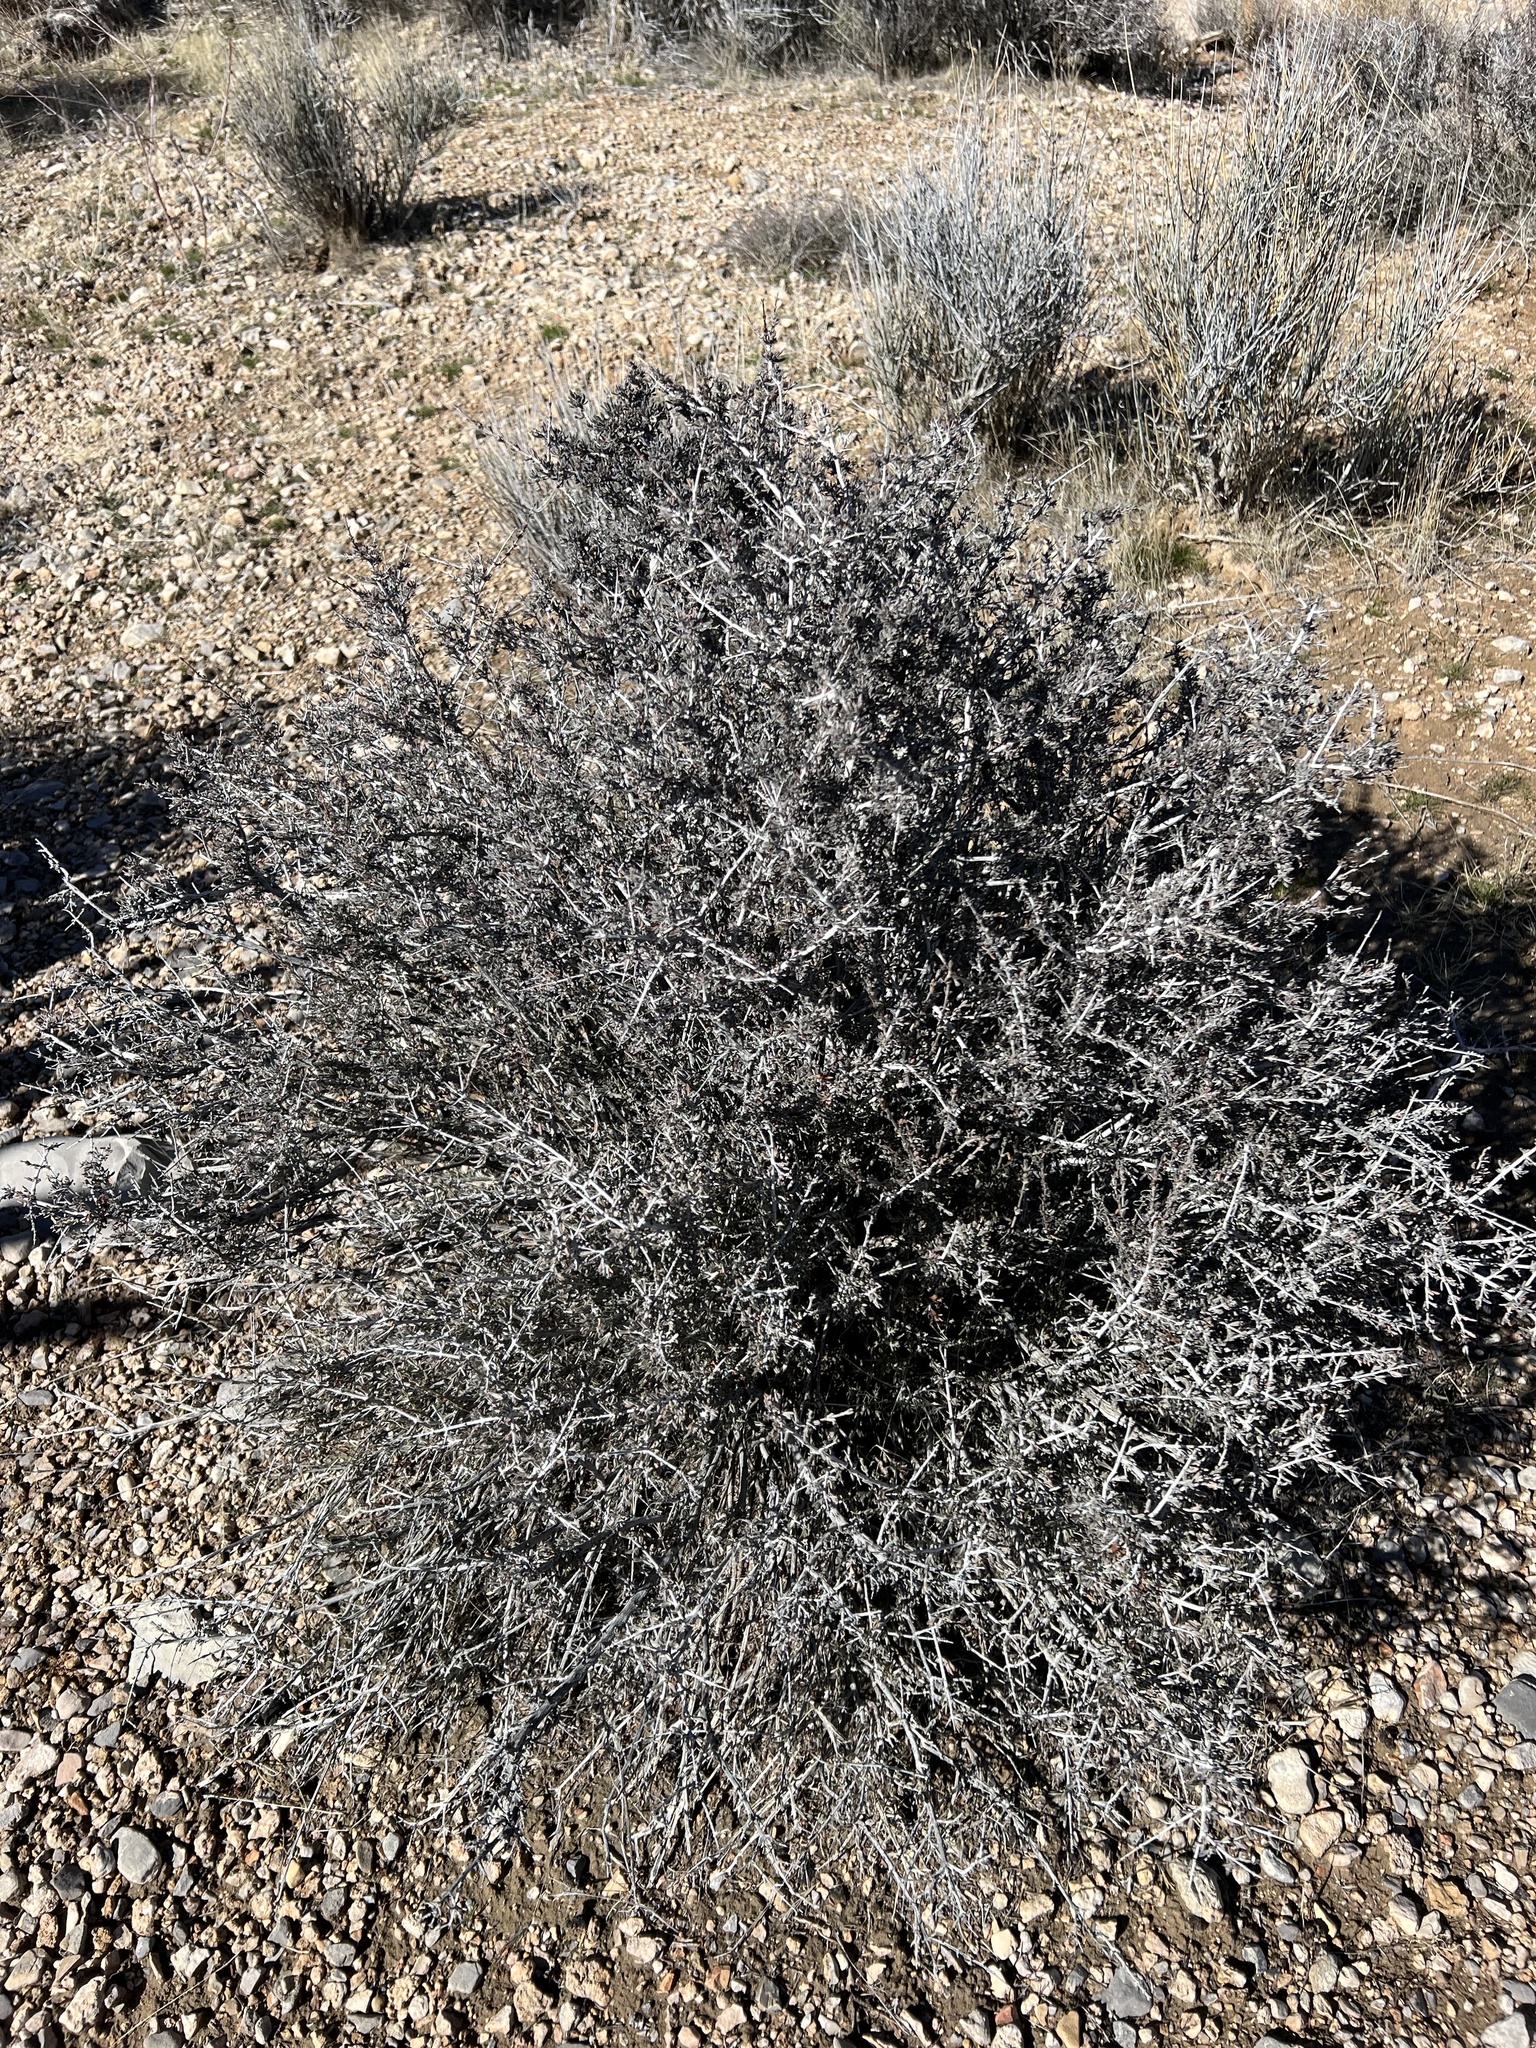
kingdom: Plantae
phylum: Tracheophyta
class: Magnoliopsida
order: Rosales
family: Rosaceae
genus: Coleogyne
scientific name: Coleogyne ramosissima
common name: Blackbrush
